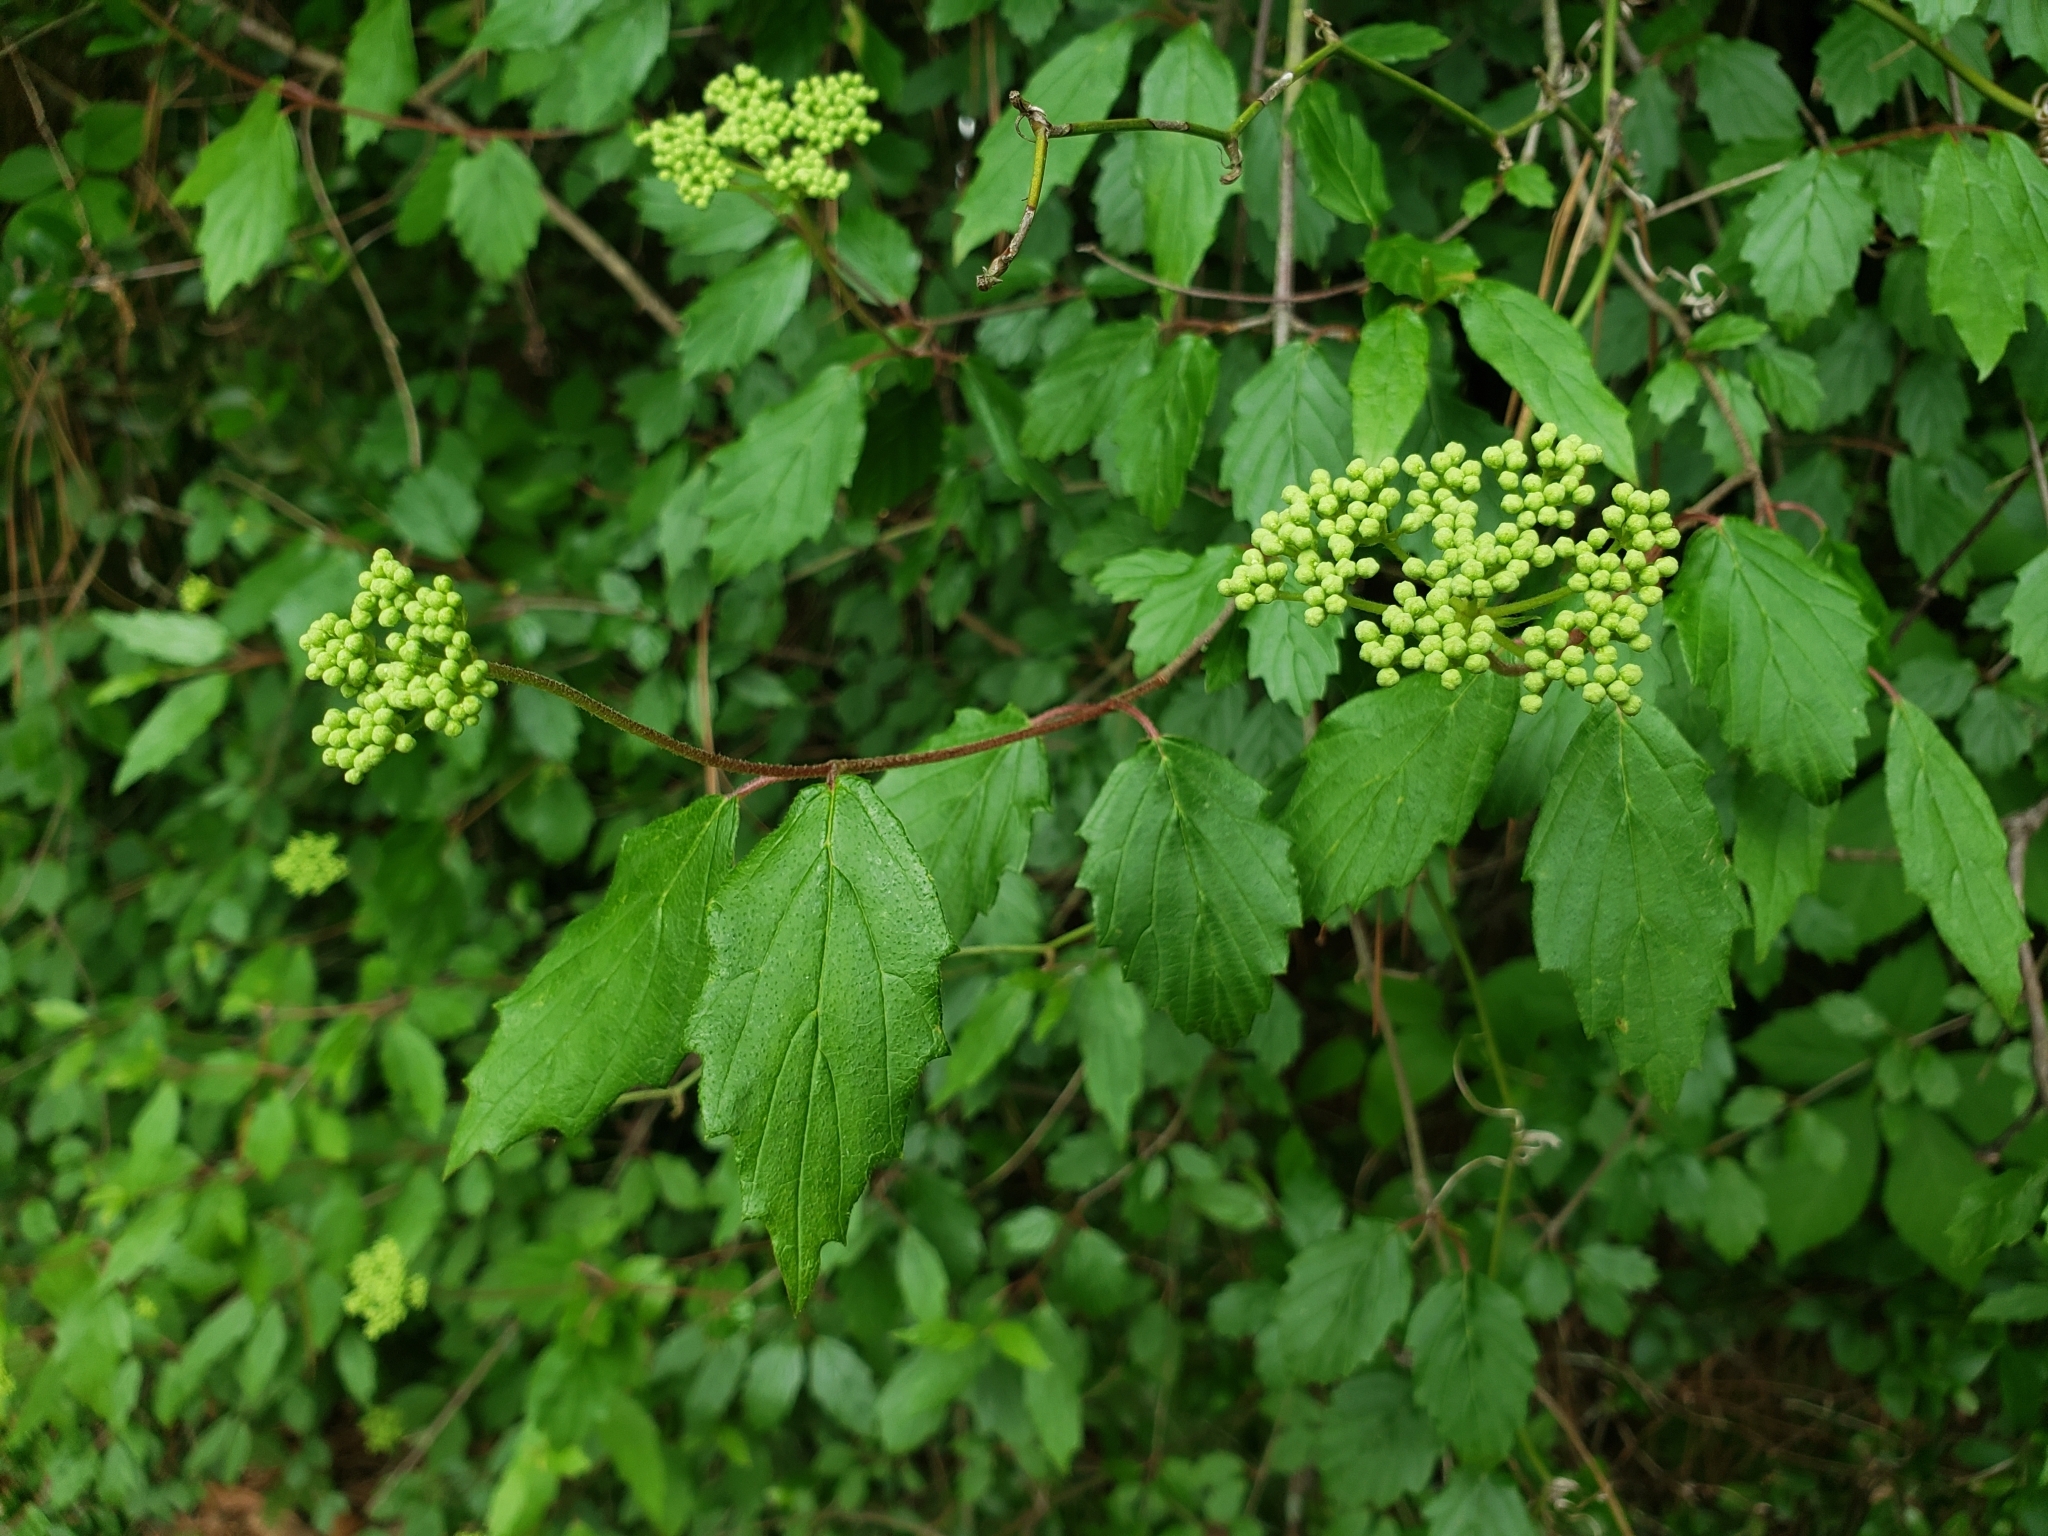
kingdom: Plantae
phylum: Tracheophyta
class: Magnoliopsida
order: Dipsacales
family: Viburnaceae
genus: Viburnum
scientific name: Viburnum scabrellum
